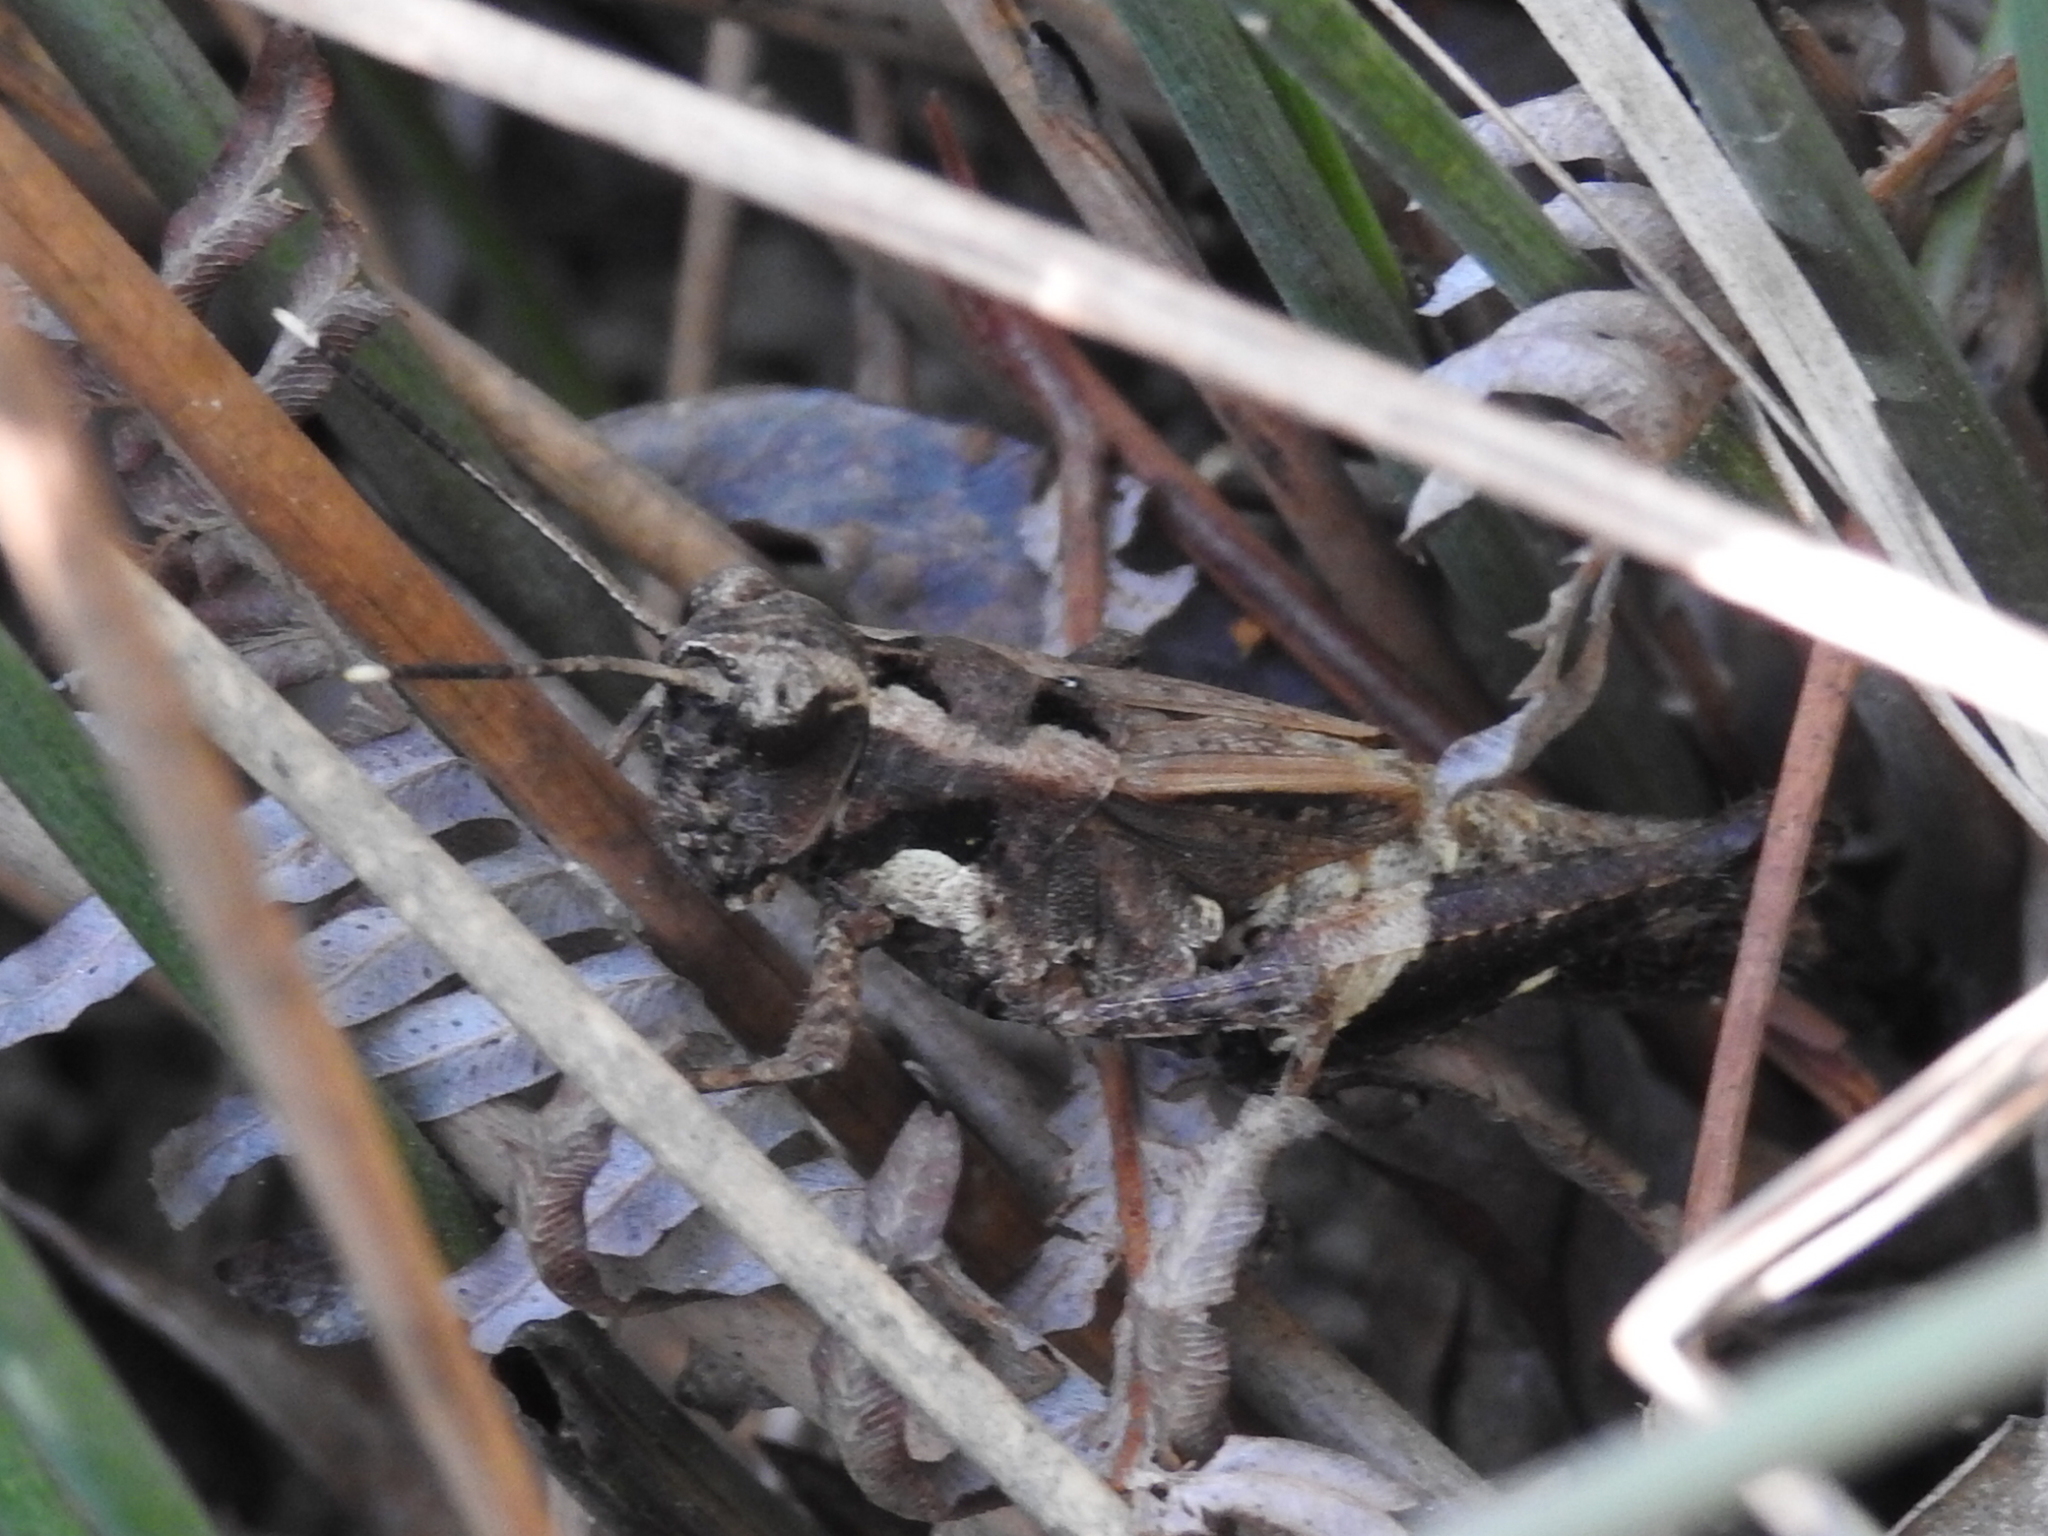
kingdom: Animalia
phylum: Arthropoda
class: Insecta
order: Orthoptera
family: Acrididae
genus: Traulia
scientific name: Traulia orientalis
